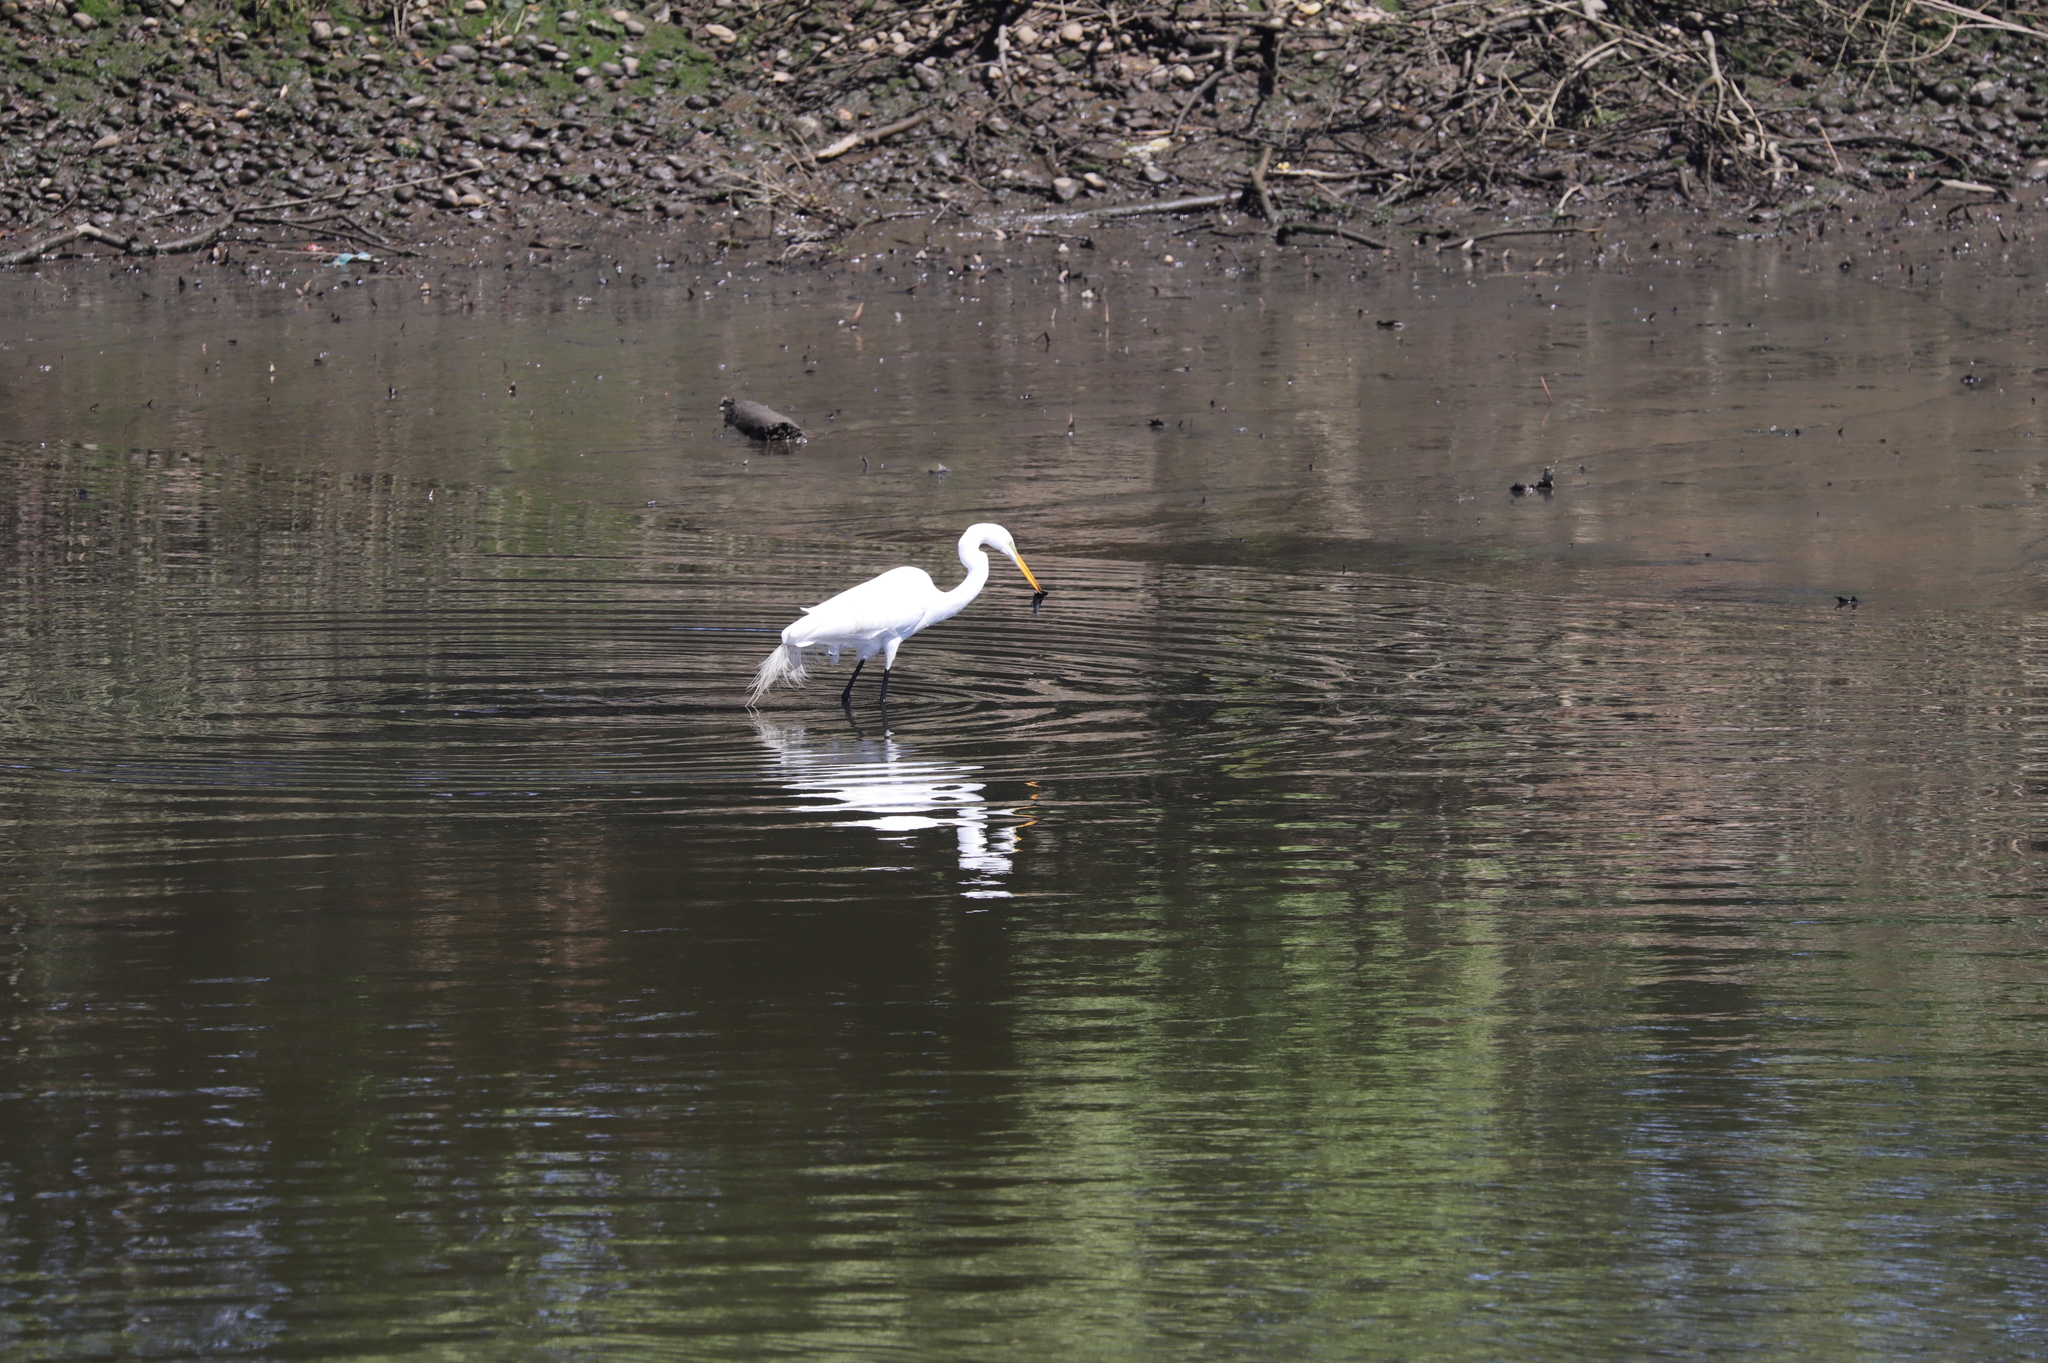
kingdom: Animalia
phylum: Chordata
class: Aves
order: Pelecaniformes
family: Ardeidae
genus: Ardea
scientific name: Ardea alba
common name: Great egret
